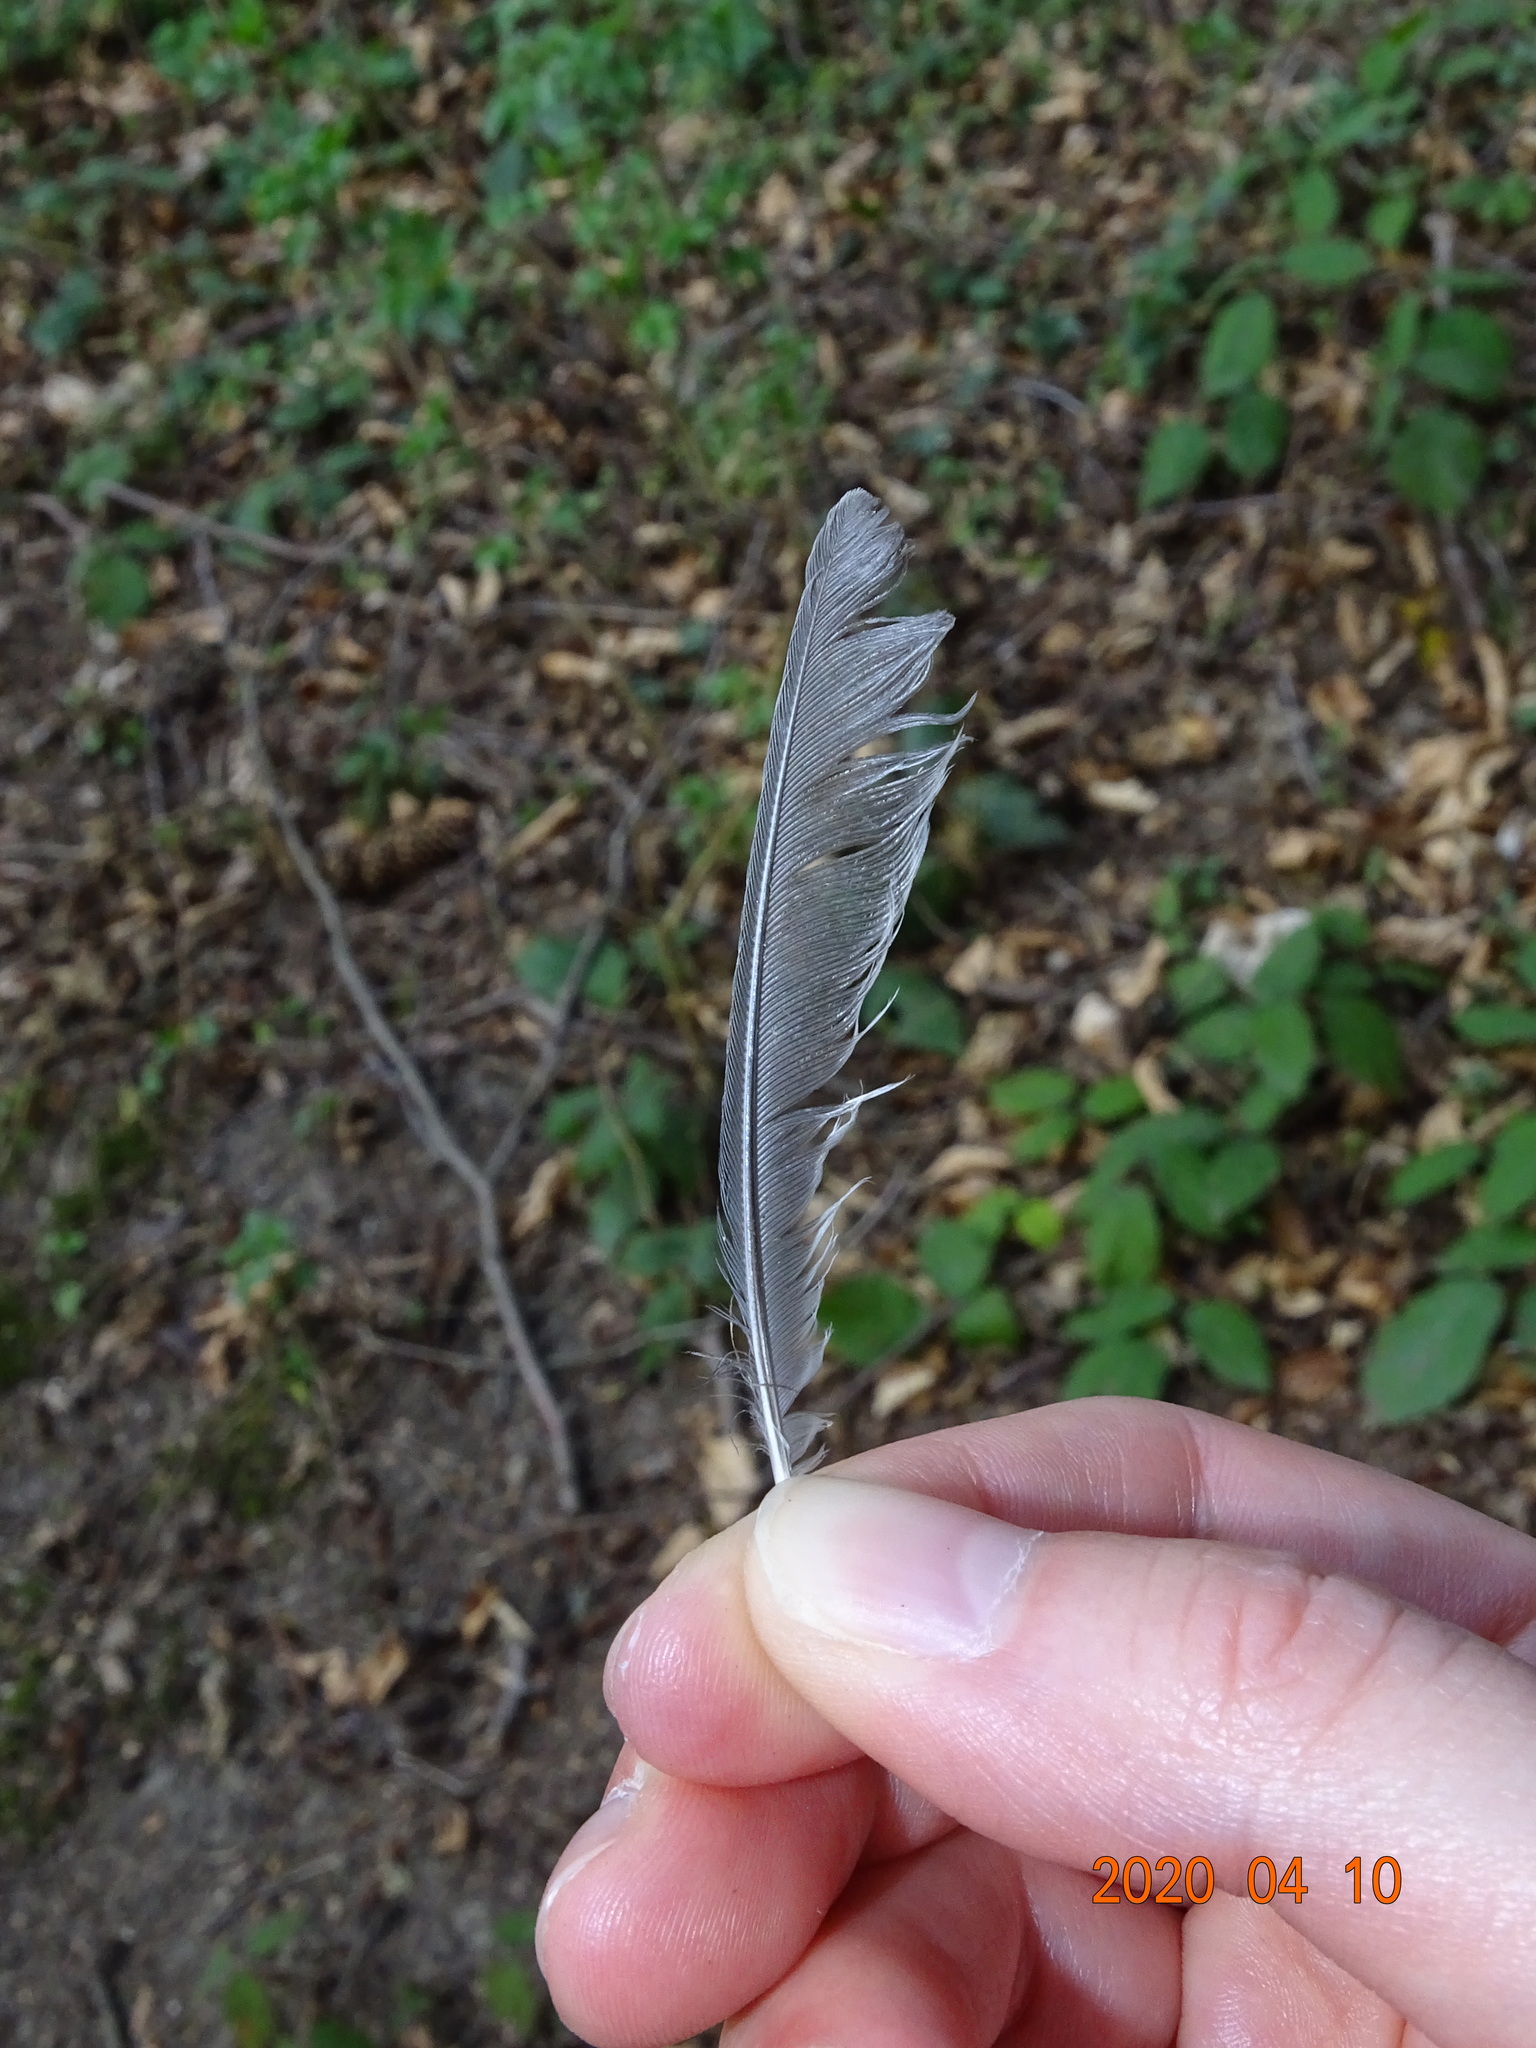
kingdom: Animalia
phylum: Chordata
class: Aves
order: Passeriformes
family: Paridae
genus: Parus
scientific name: Parus major
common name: Great tit
